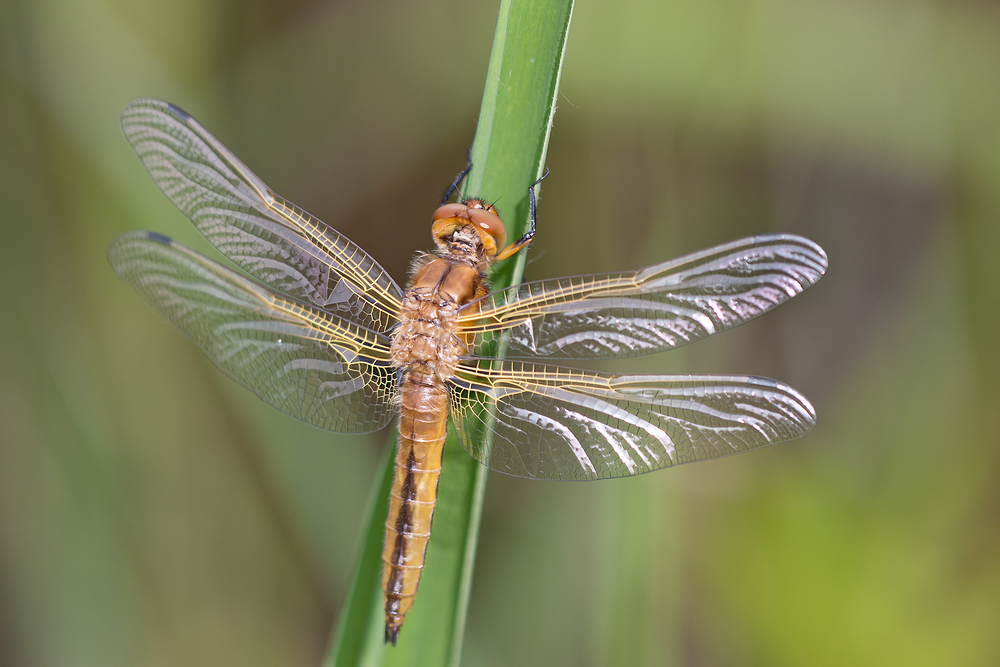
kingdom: Animalia
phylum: Arthropoda
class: Insecta
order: Odonata
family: Libellulidae
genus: Libellula
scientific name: Libellula fulva
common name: Blue chaser
